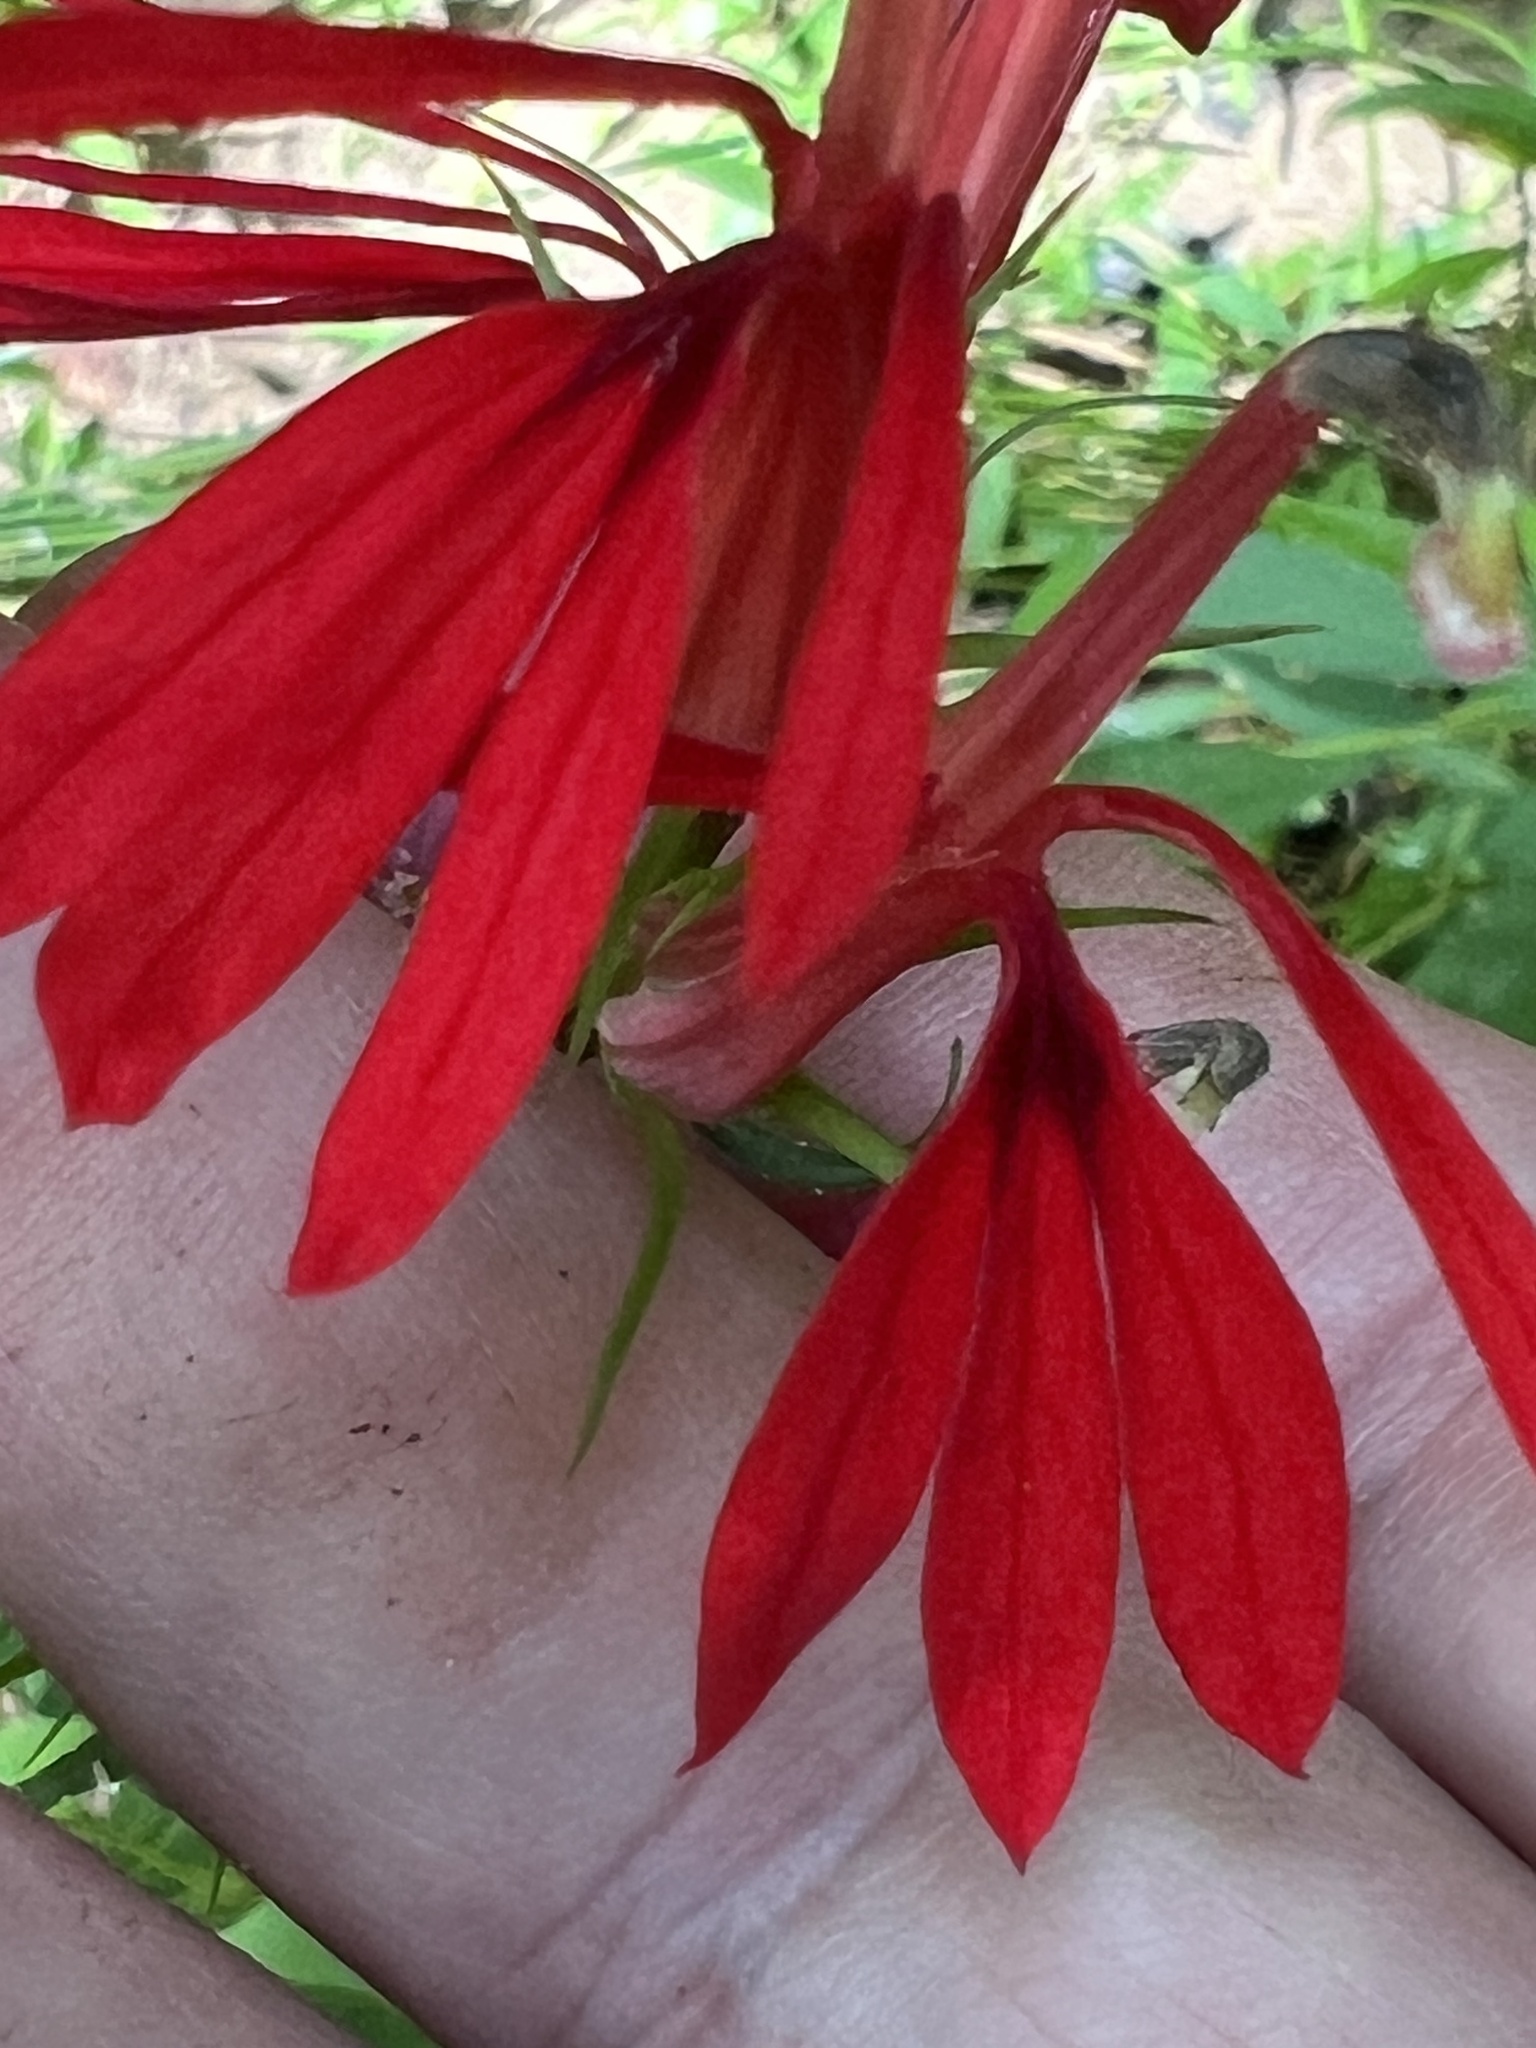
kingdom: Plantae
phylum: Tracheophyta
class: Magnoliopsida
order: Asterales
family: Campanulaceae
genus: Lobelia
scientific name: Lobelia cardinalis
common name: Cardinal flower
